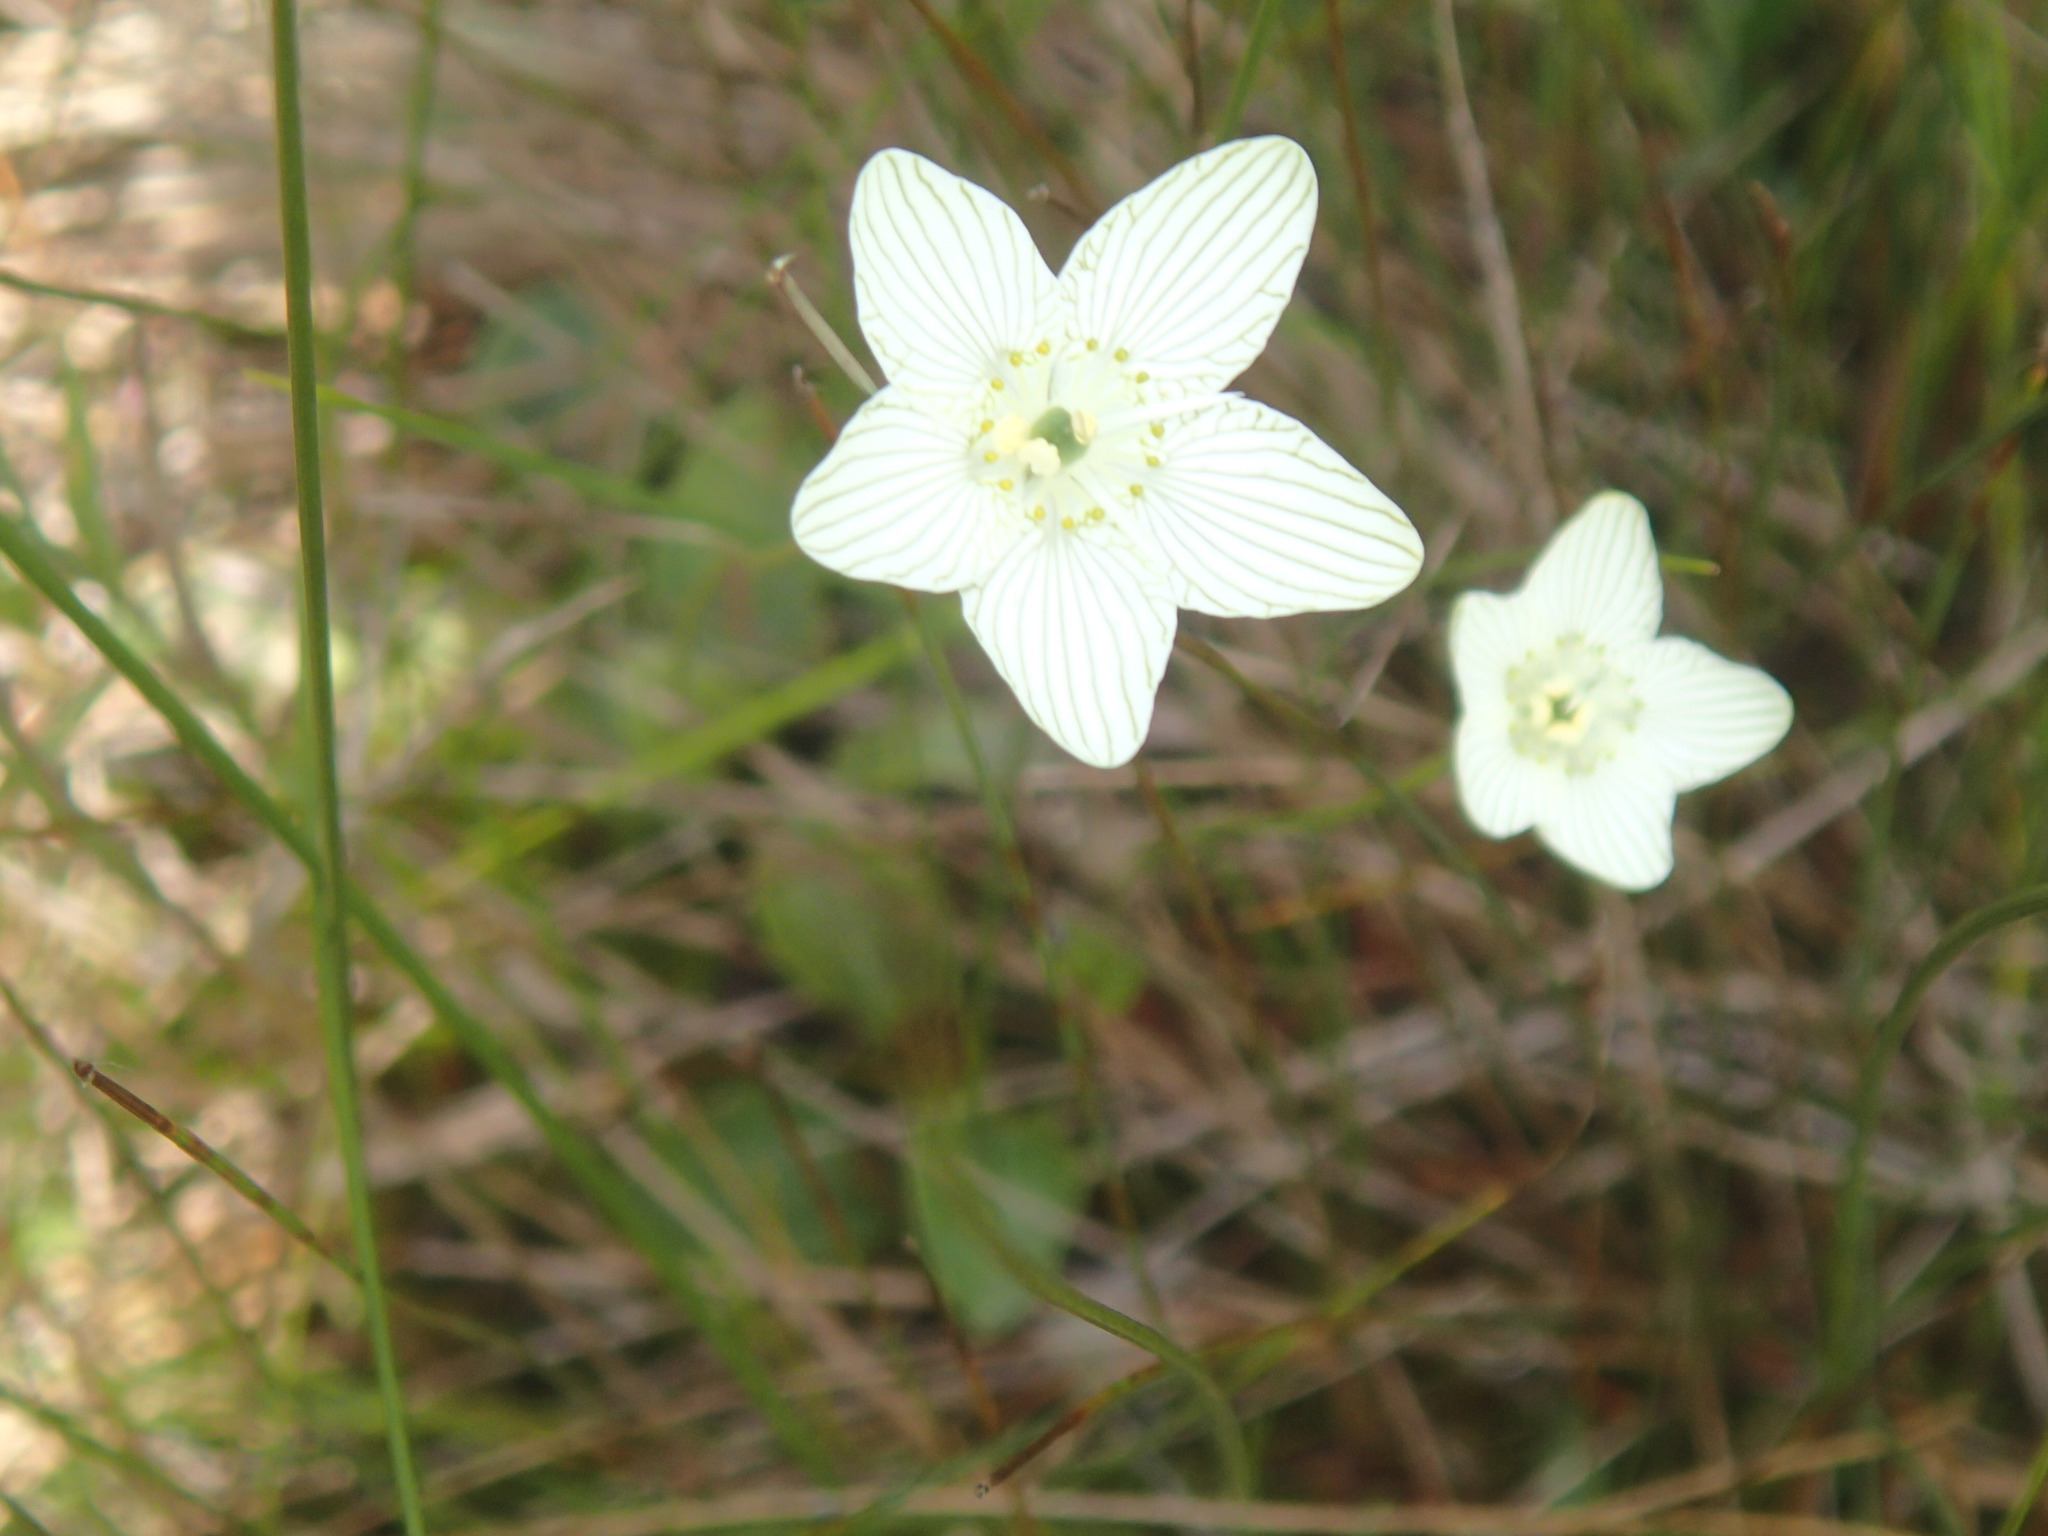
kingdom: Plantae
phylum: Tracheophyta
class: Magnoliopsida
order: Celastrales
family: Parnassiaceae
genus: Parnassia
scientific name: Parnassia glauca
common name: American grass-of-parnassus
